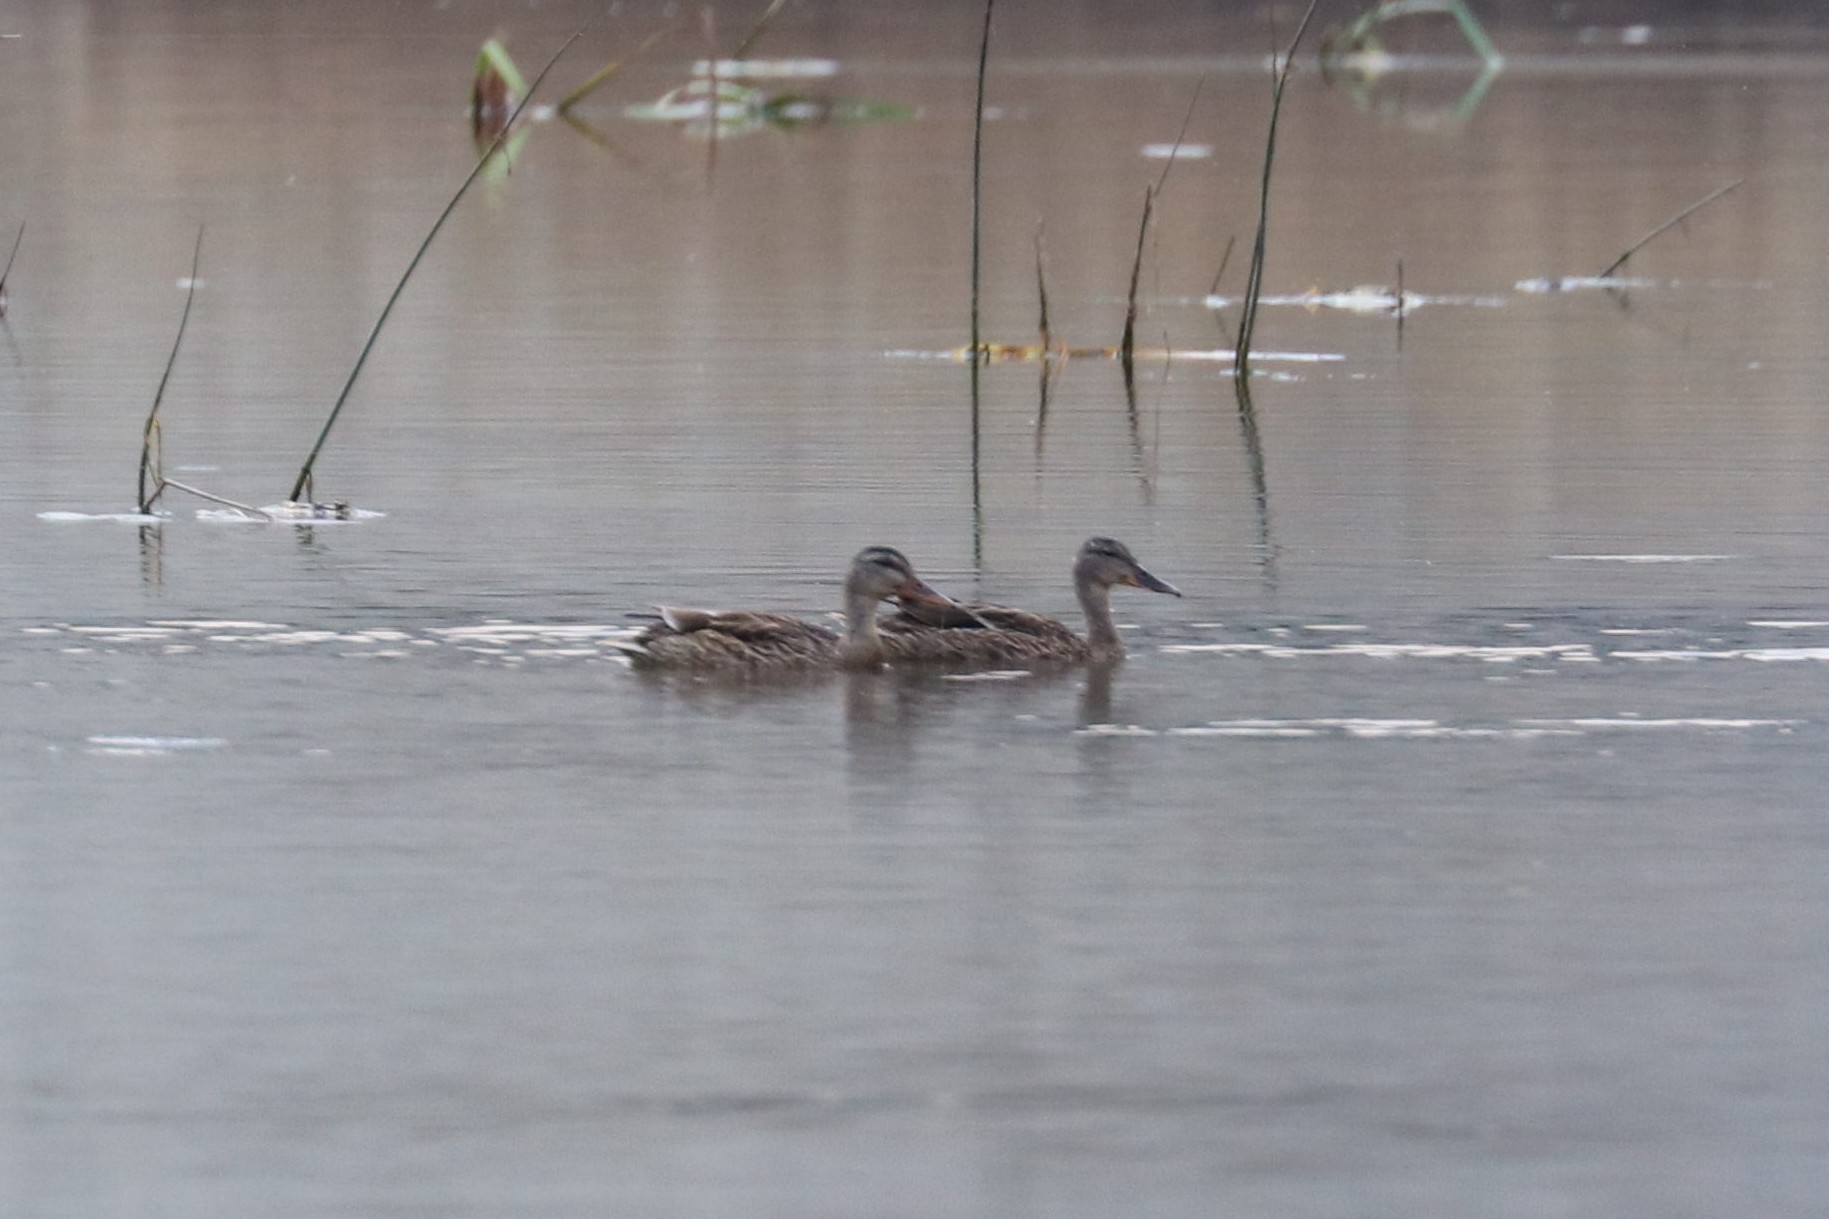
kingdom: Animalia
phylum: Chordata
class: Aves
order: Anseriformes
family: Anatidae
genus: Anas
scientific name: Anas platyrhynchos
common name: Mallard
